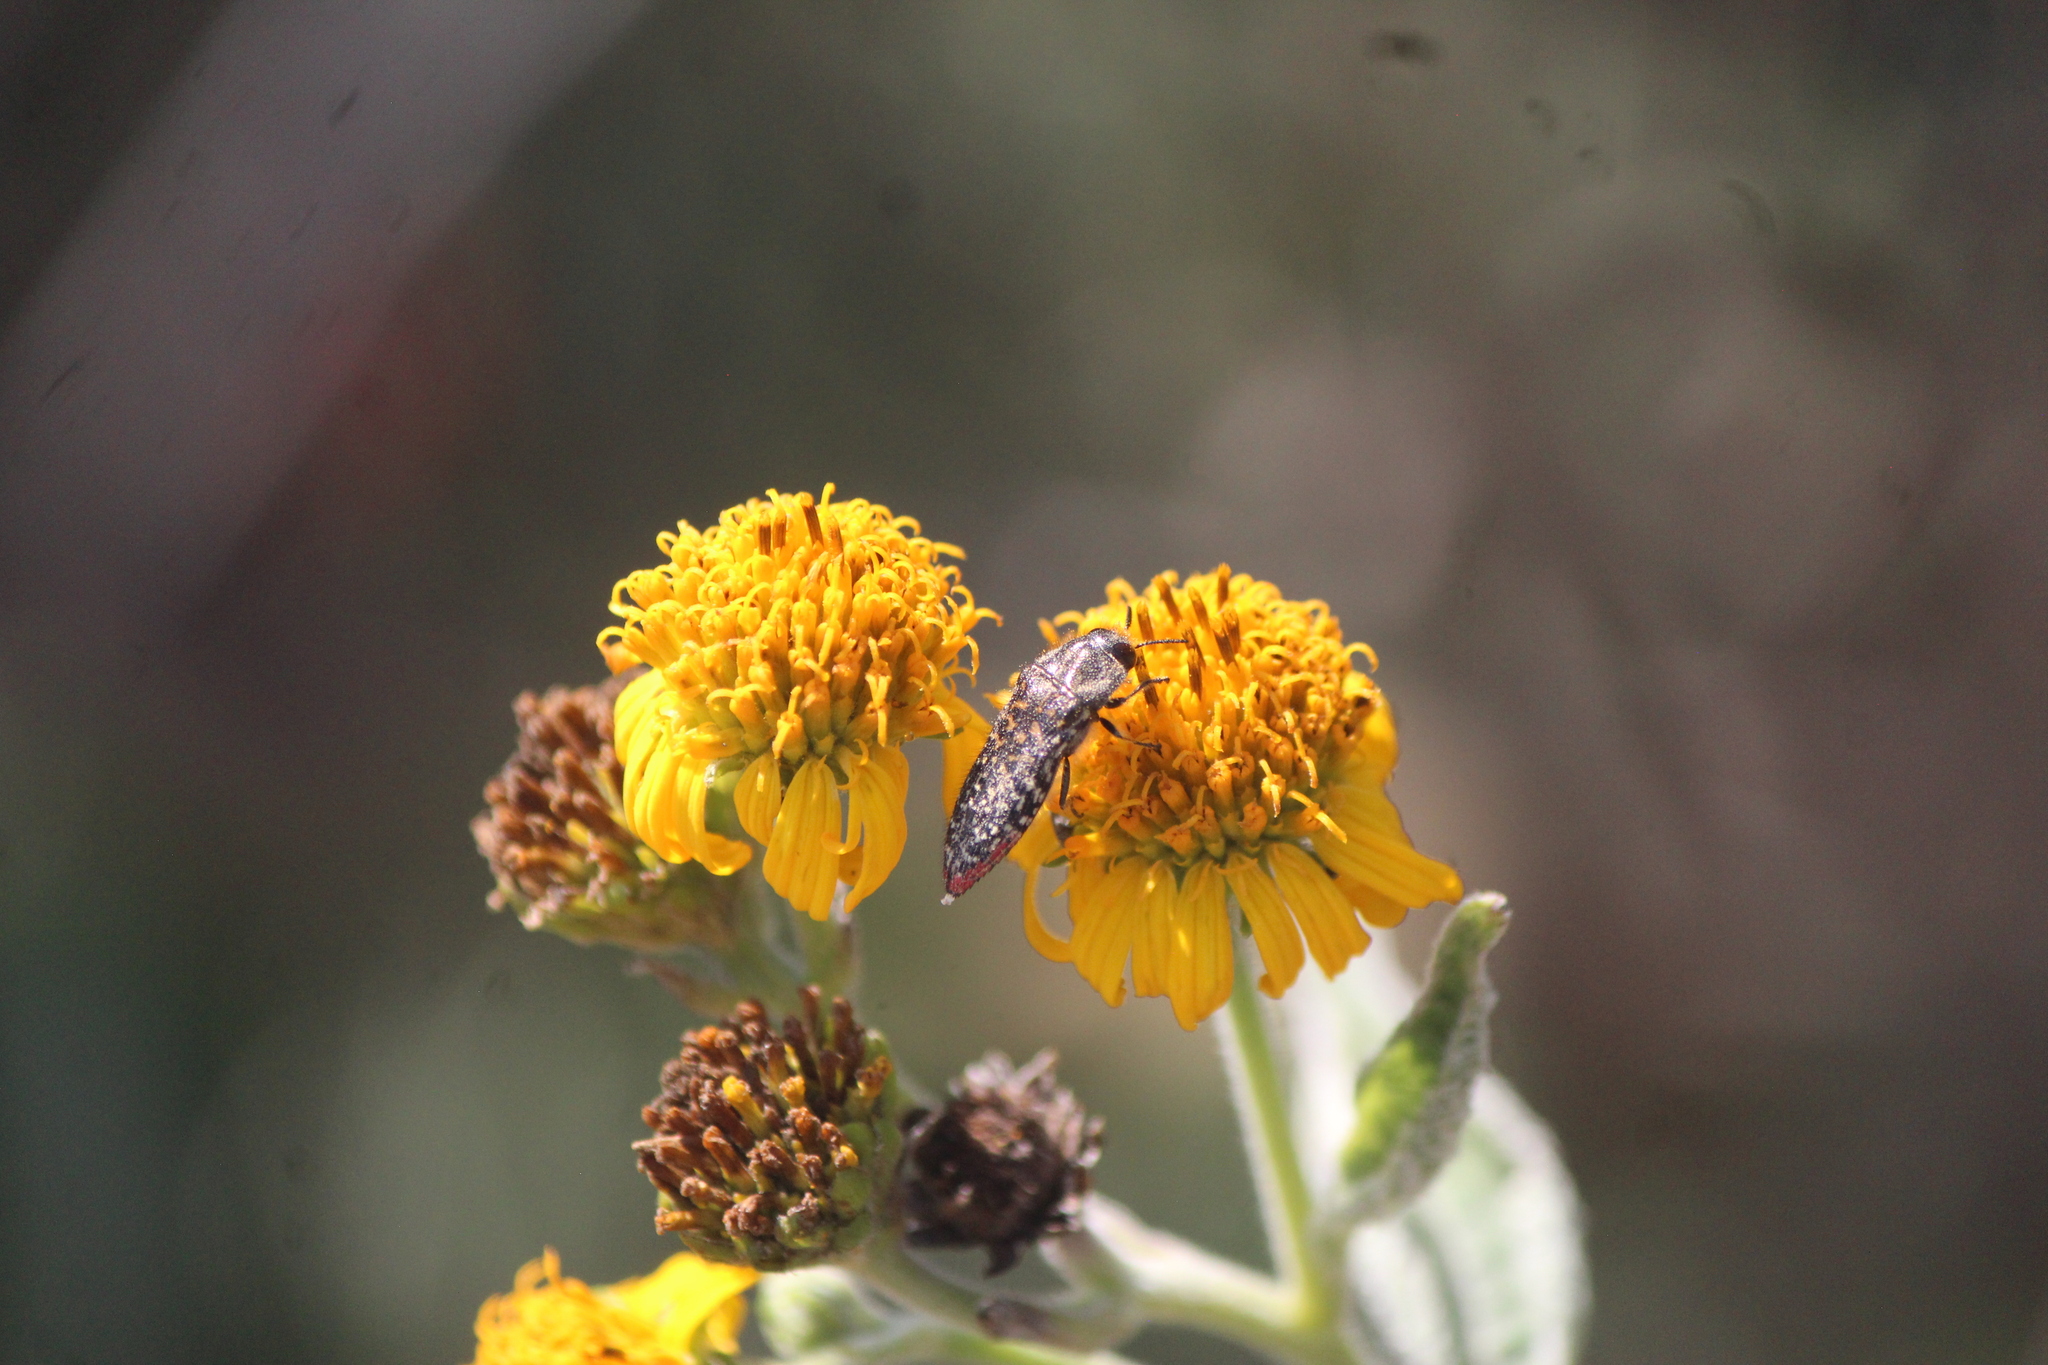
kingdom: Animalia
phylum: Arthropoda
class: Insecta
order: Coleoptera
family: Buprestidae
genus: Acmaeodera
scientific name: Acmaeodera haemorrhoa
